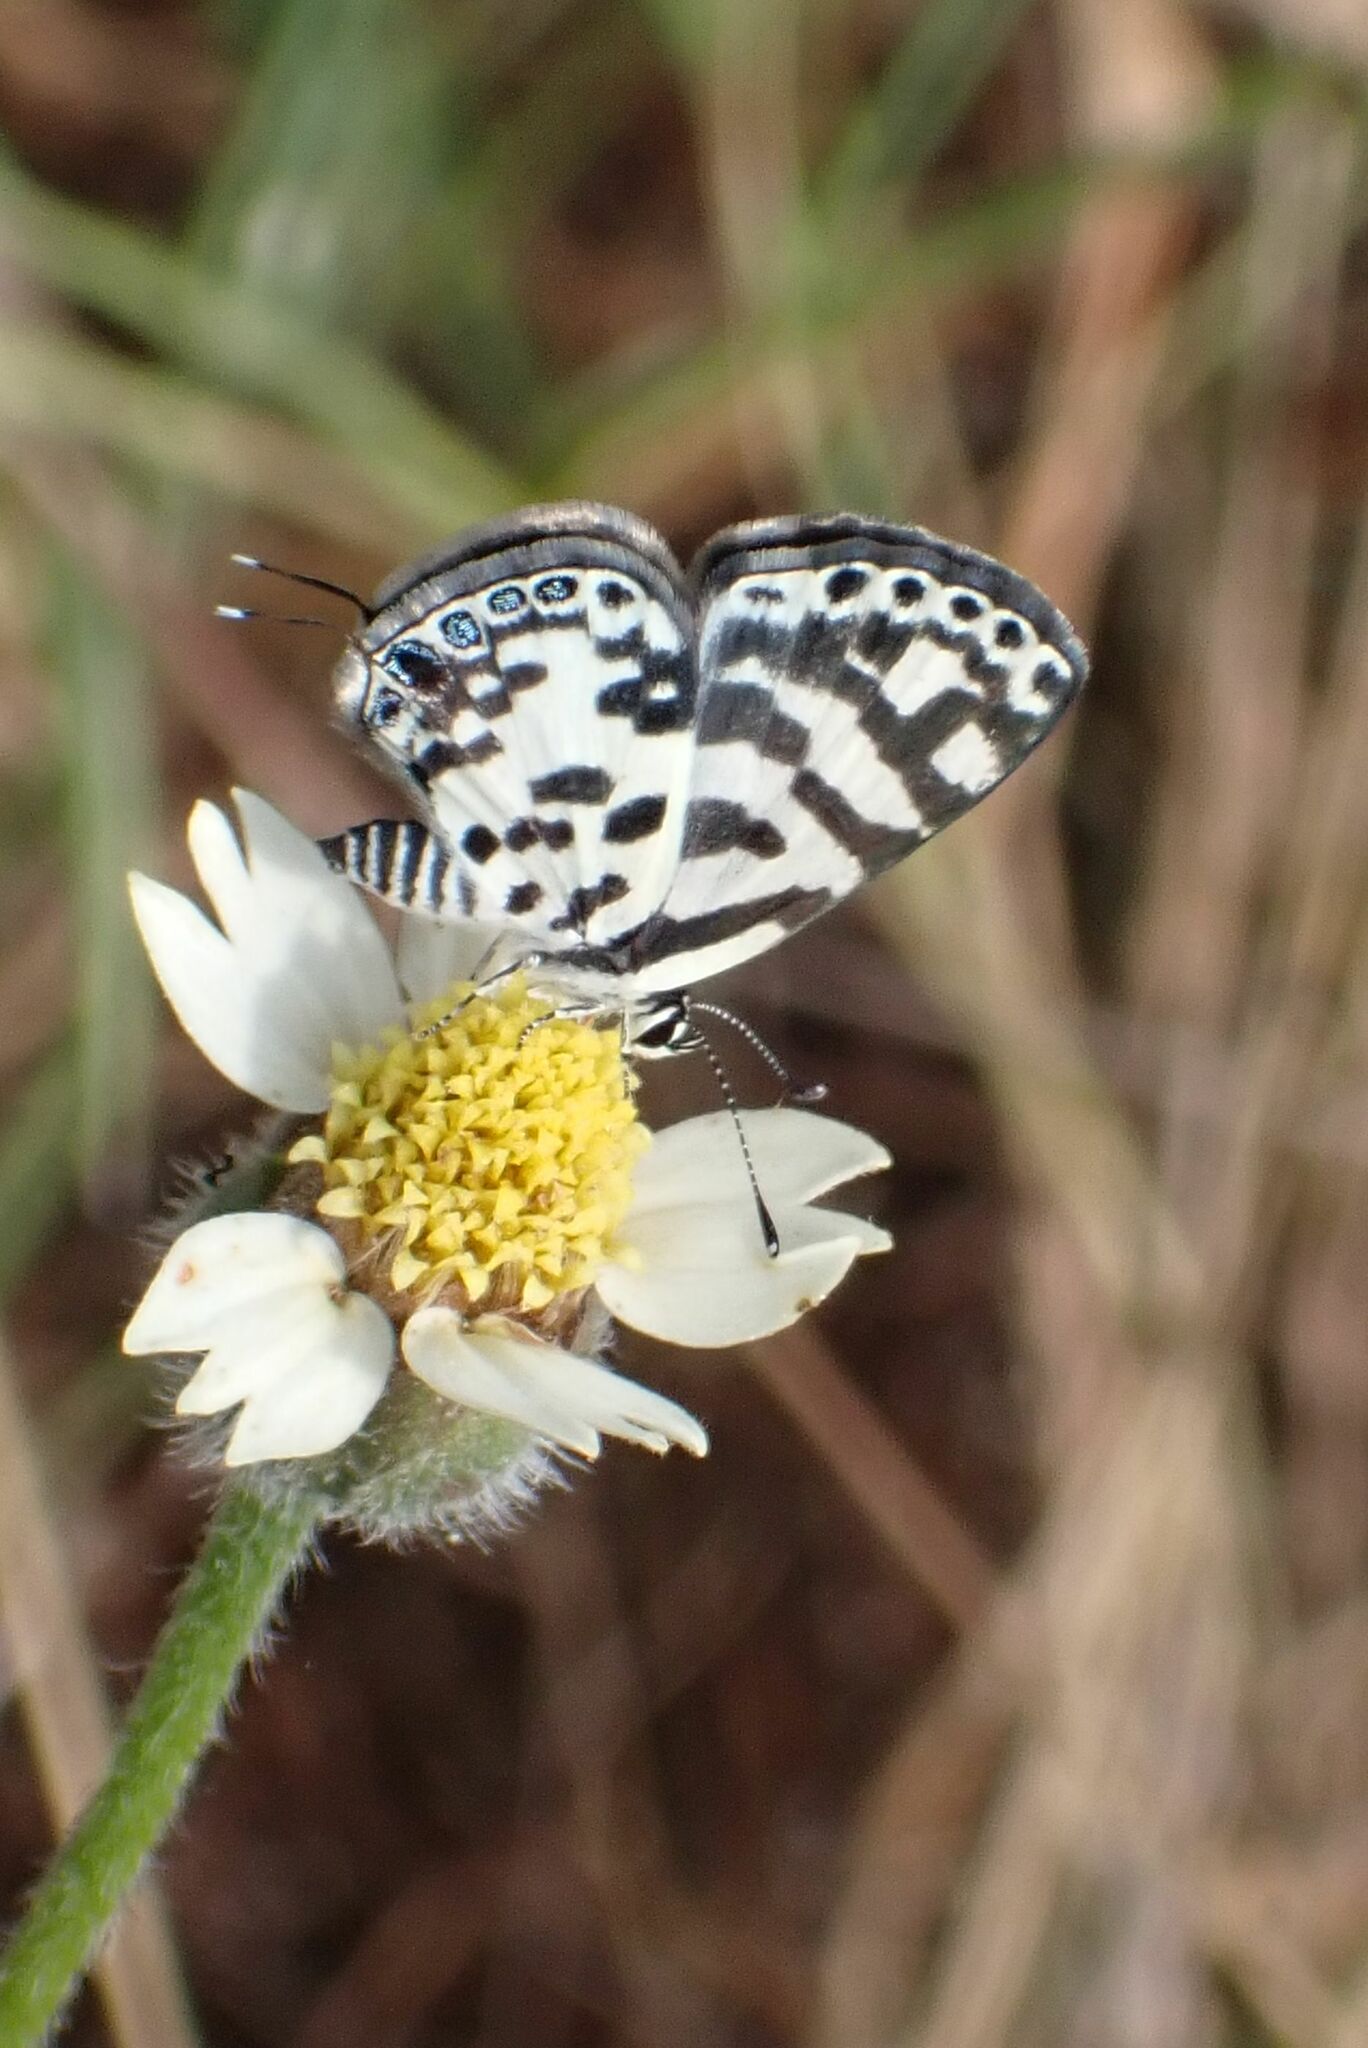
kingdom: Animalia
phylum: Arthropoda
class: Insecta
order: Lepidoptera
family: Lycaenidae
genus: Castalius
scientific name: Castalius melaena
